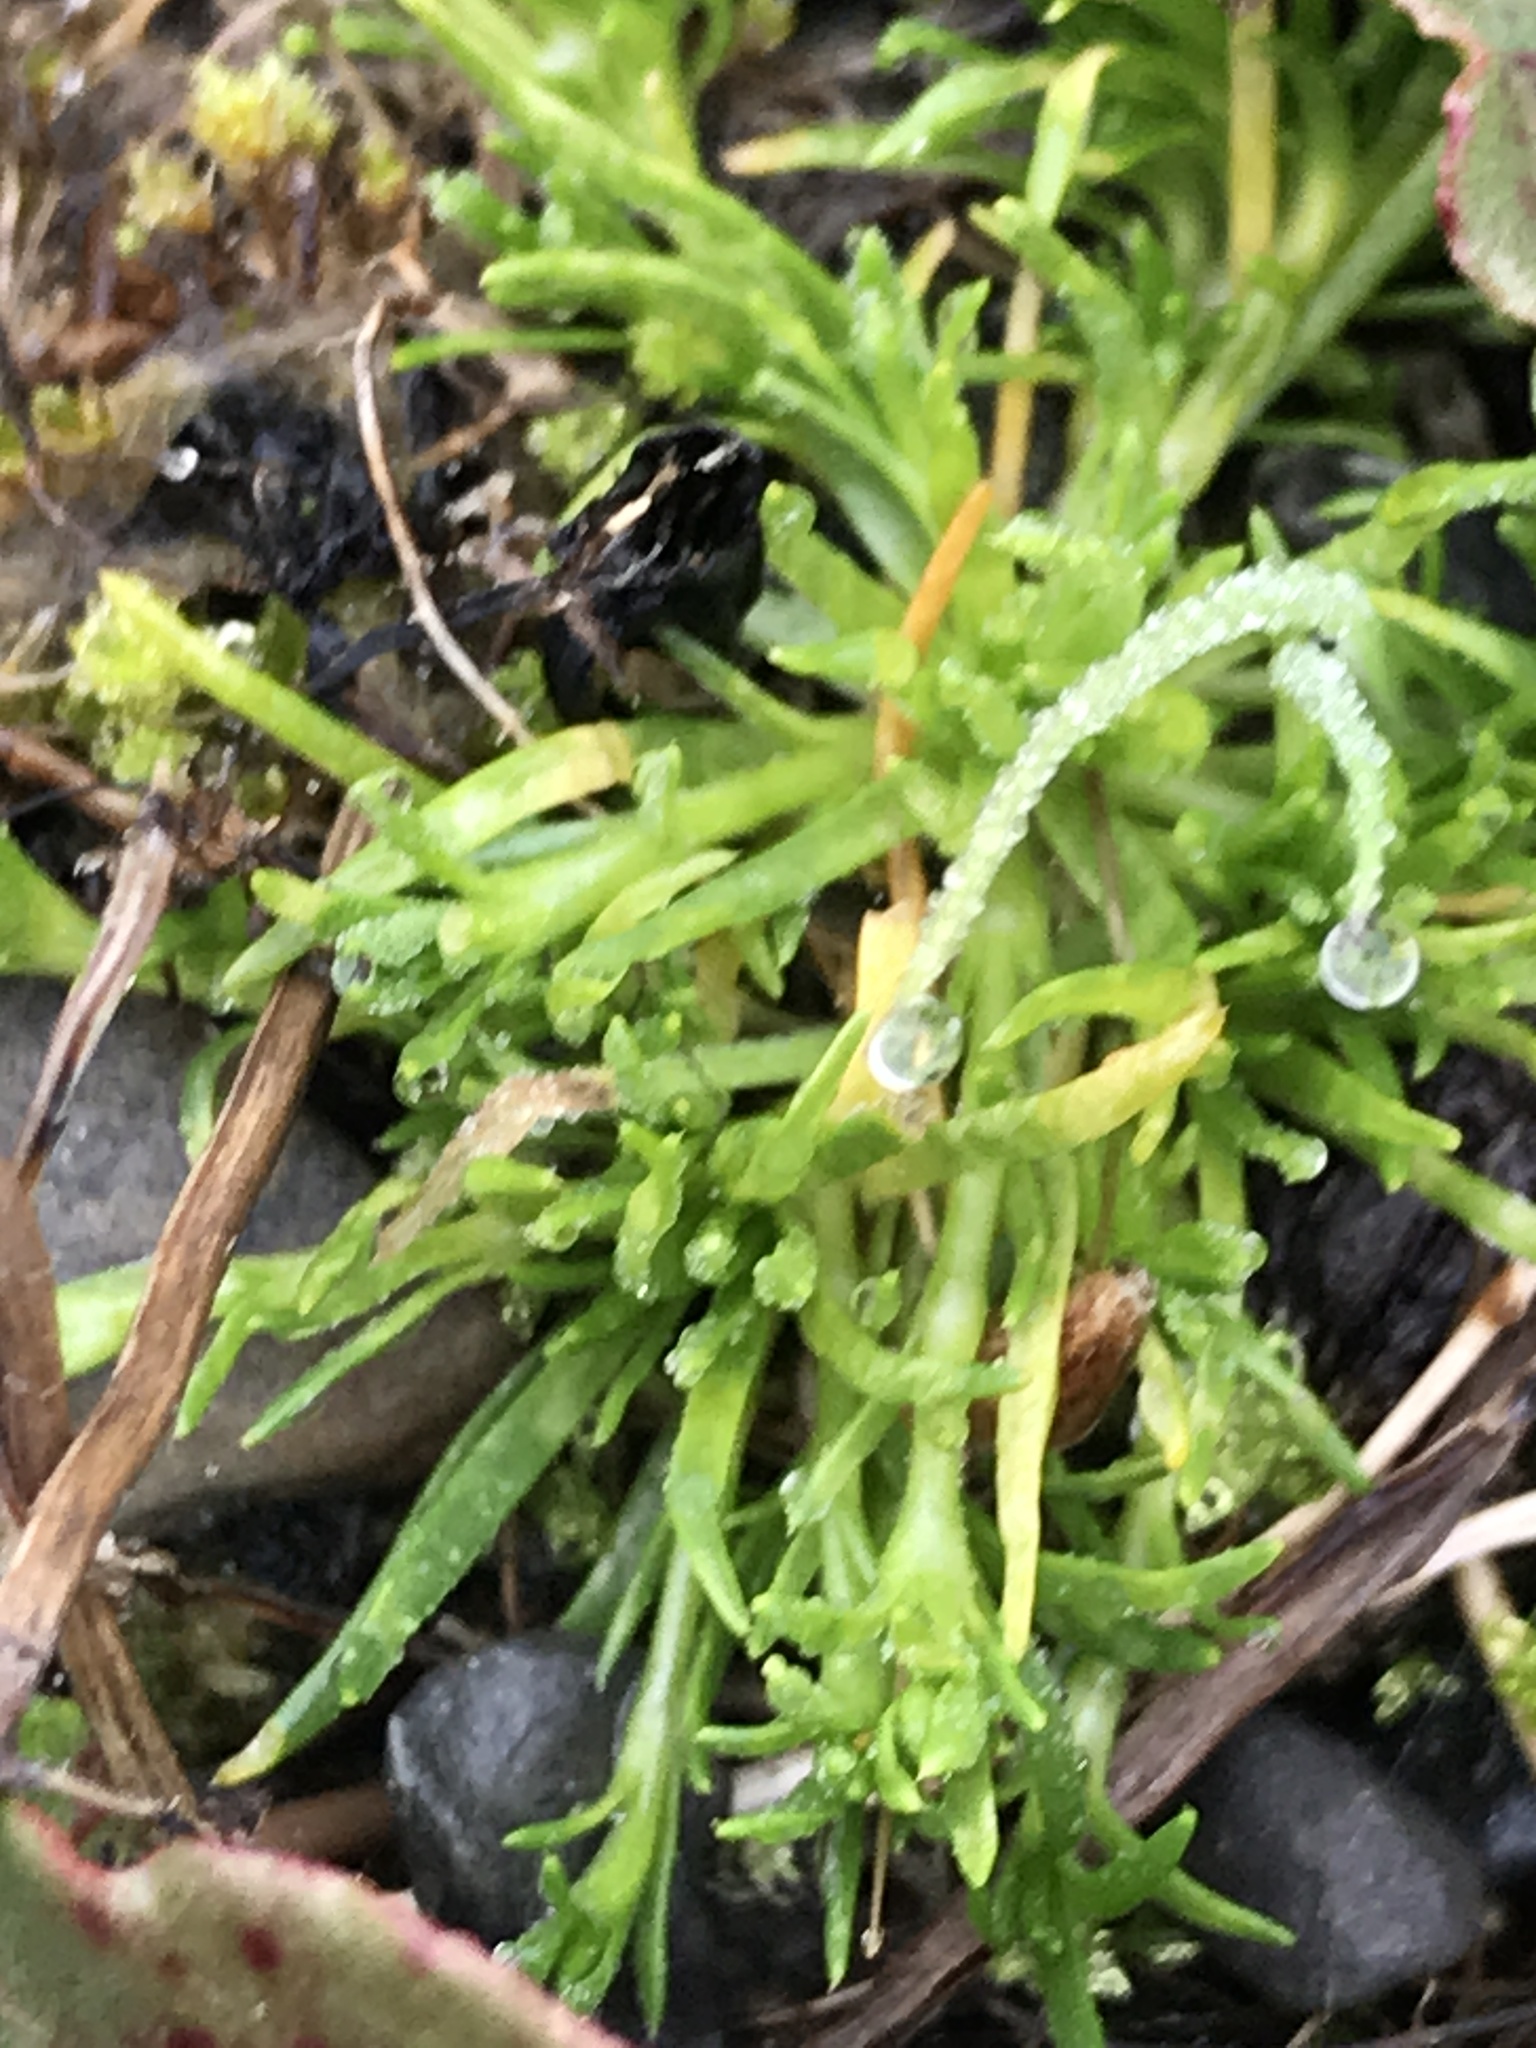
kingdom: Plantae
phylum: Tracheophyta
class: Magnoliopsida
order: Caryophyllales
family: Caryophyllaceae
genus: Sagina
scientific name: Sagina procumbens
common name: Procumbent pearlwort
